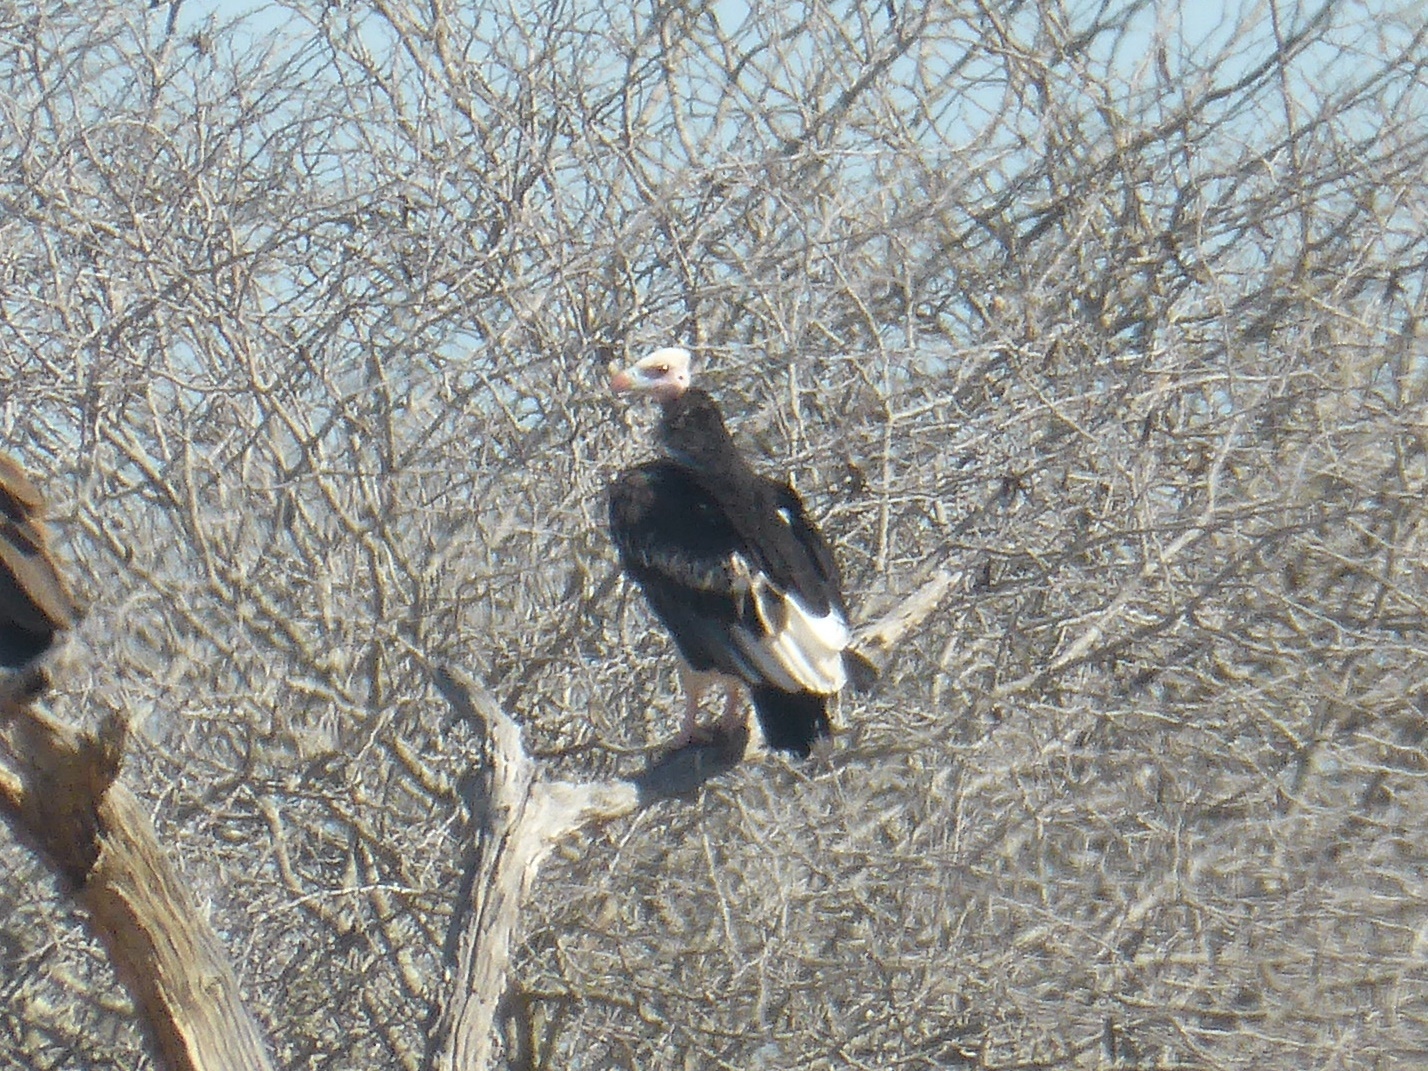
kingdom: Animalia
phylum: Chordata
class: Aves
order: Accipitriformes
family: Accipitridae
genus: Trigonoceps
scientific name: Trigonoceps occipitalis
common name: White-headed vulture
